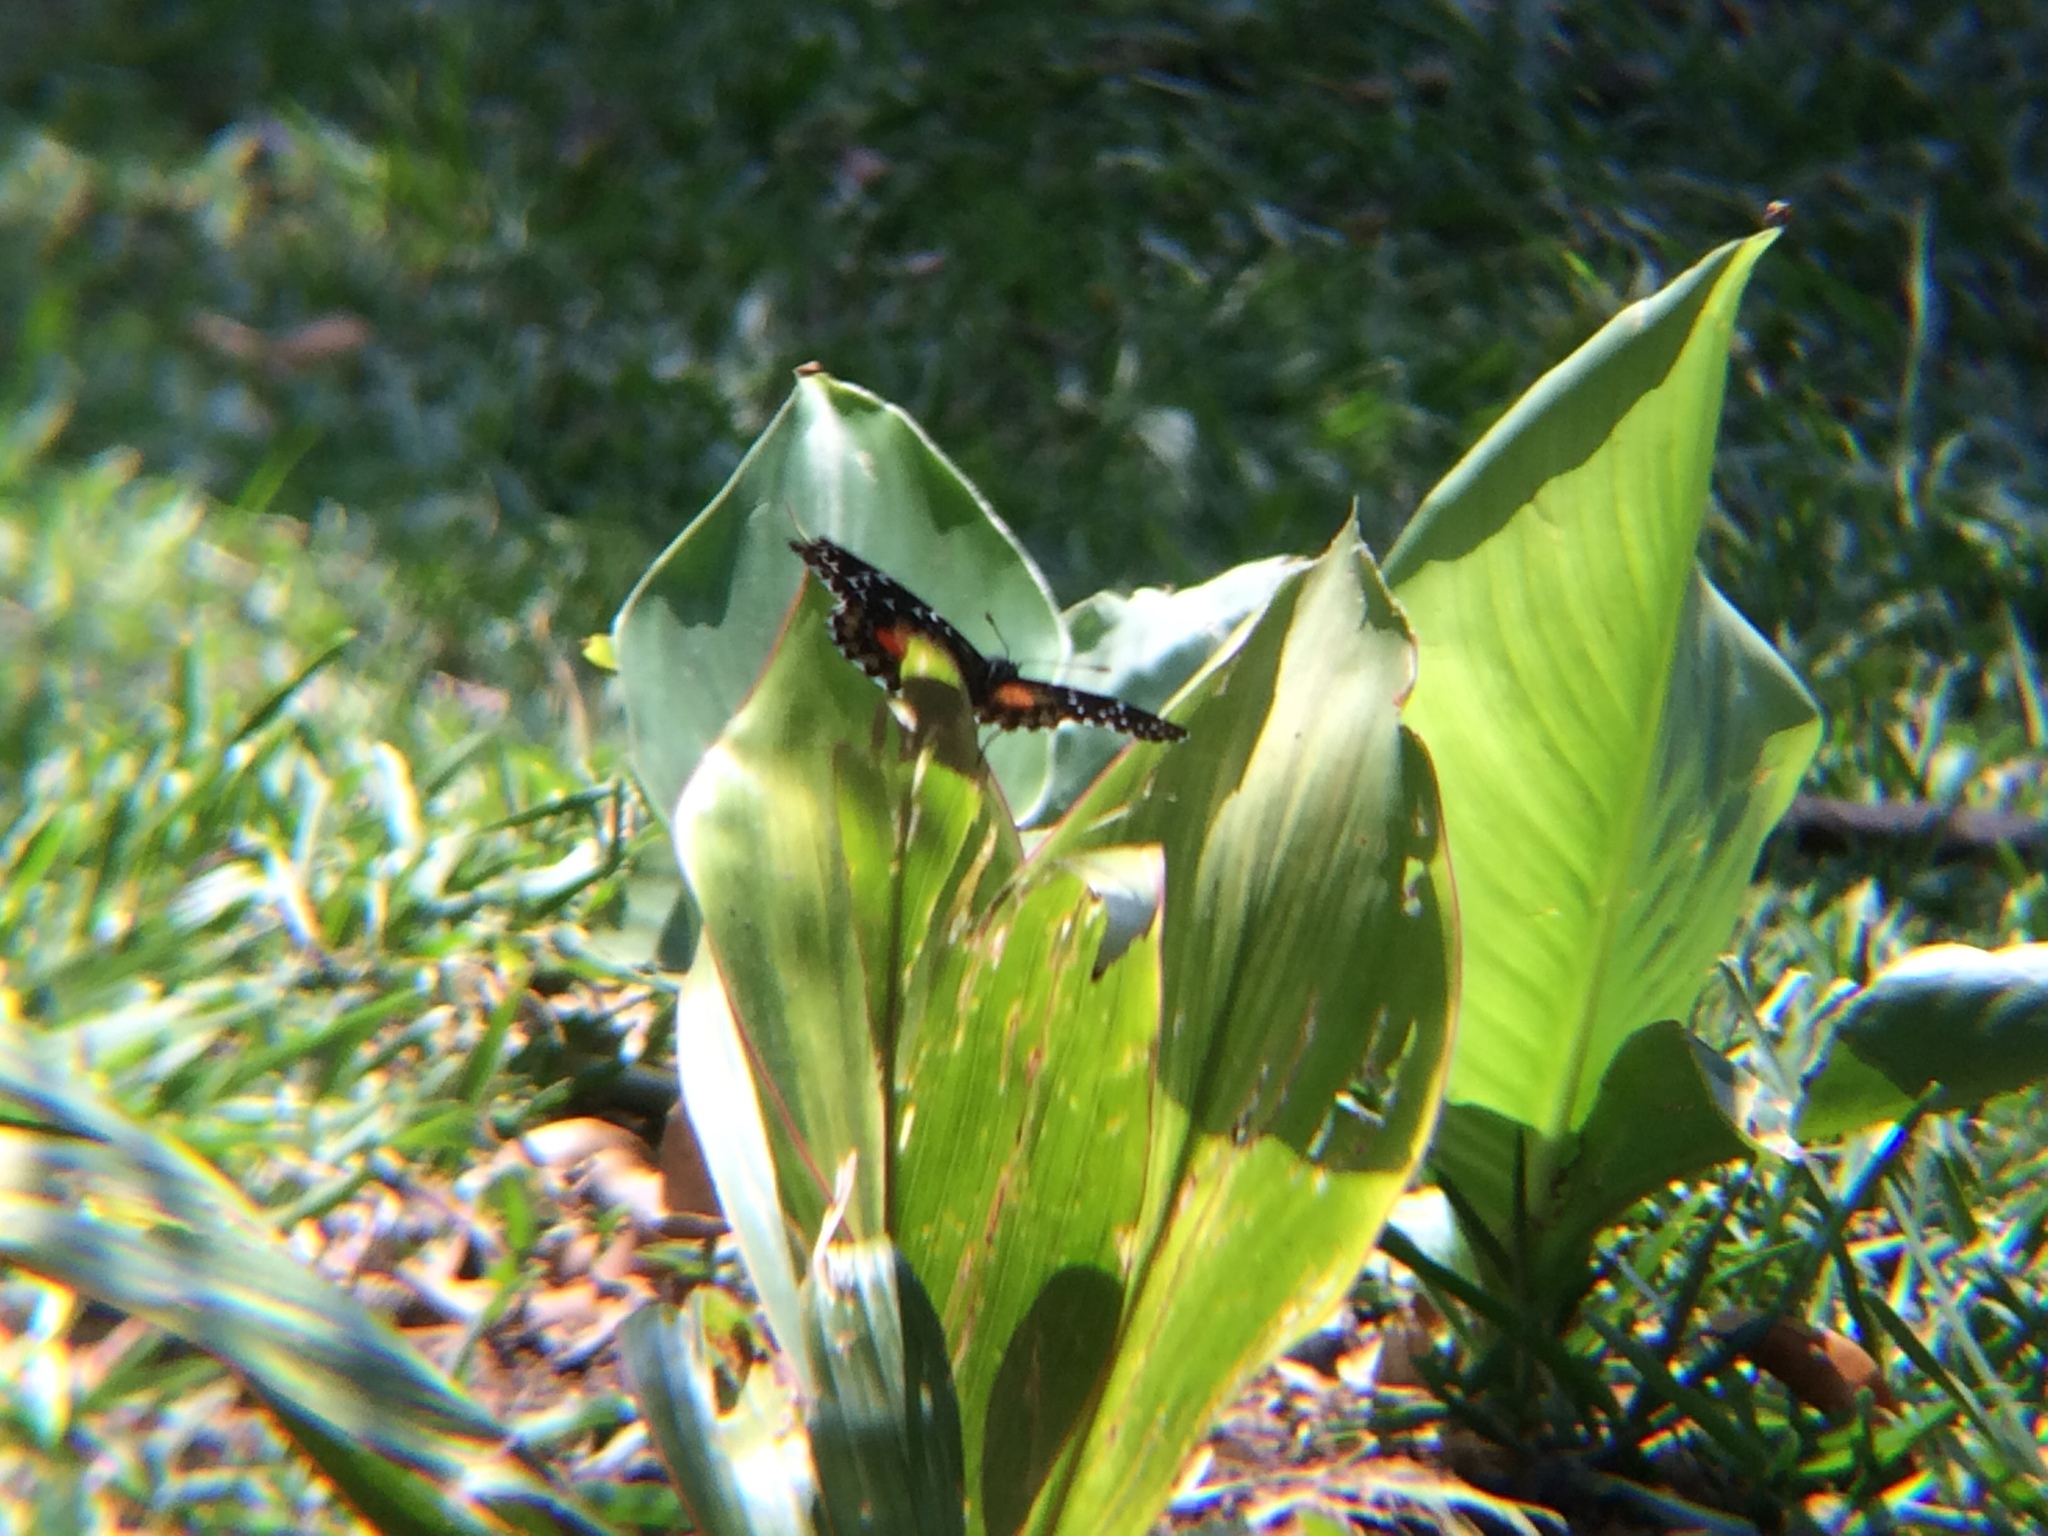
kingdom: Animalia
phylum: Arthropoda
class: Insecta
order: Lepidoptera
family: Nymphalidae
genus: Chlosyne
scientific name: Chlosyne janais
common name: Crimson patch
